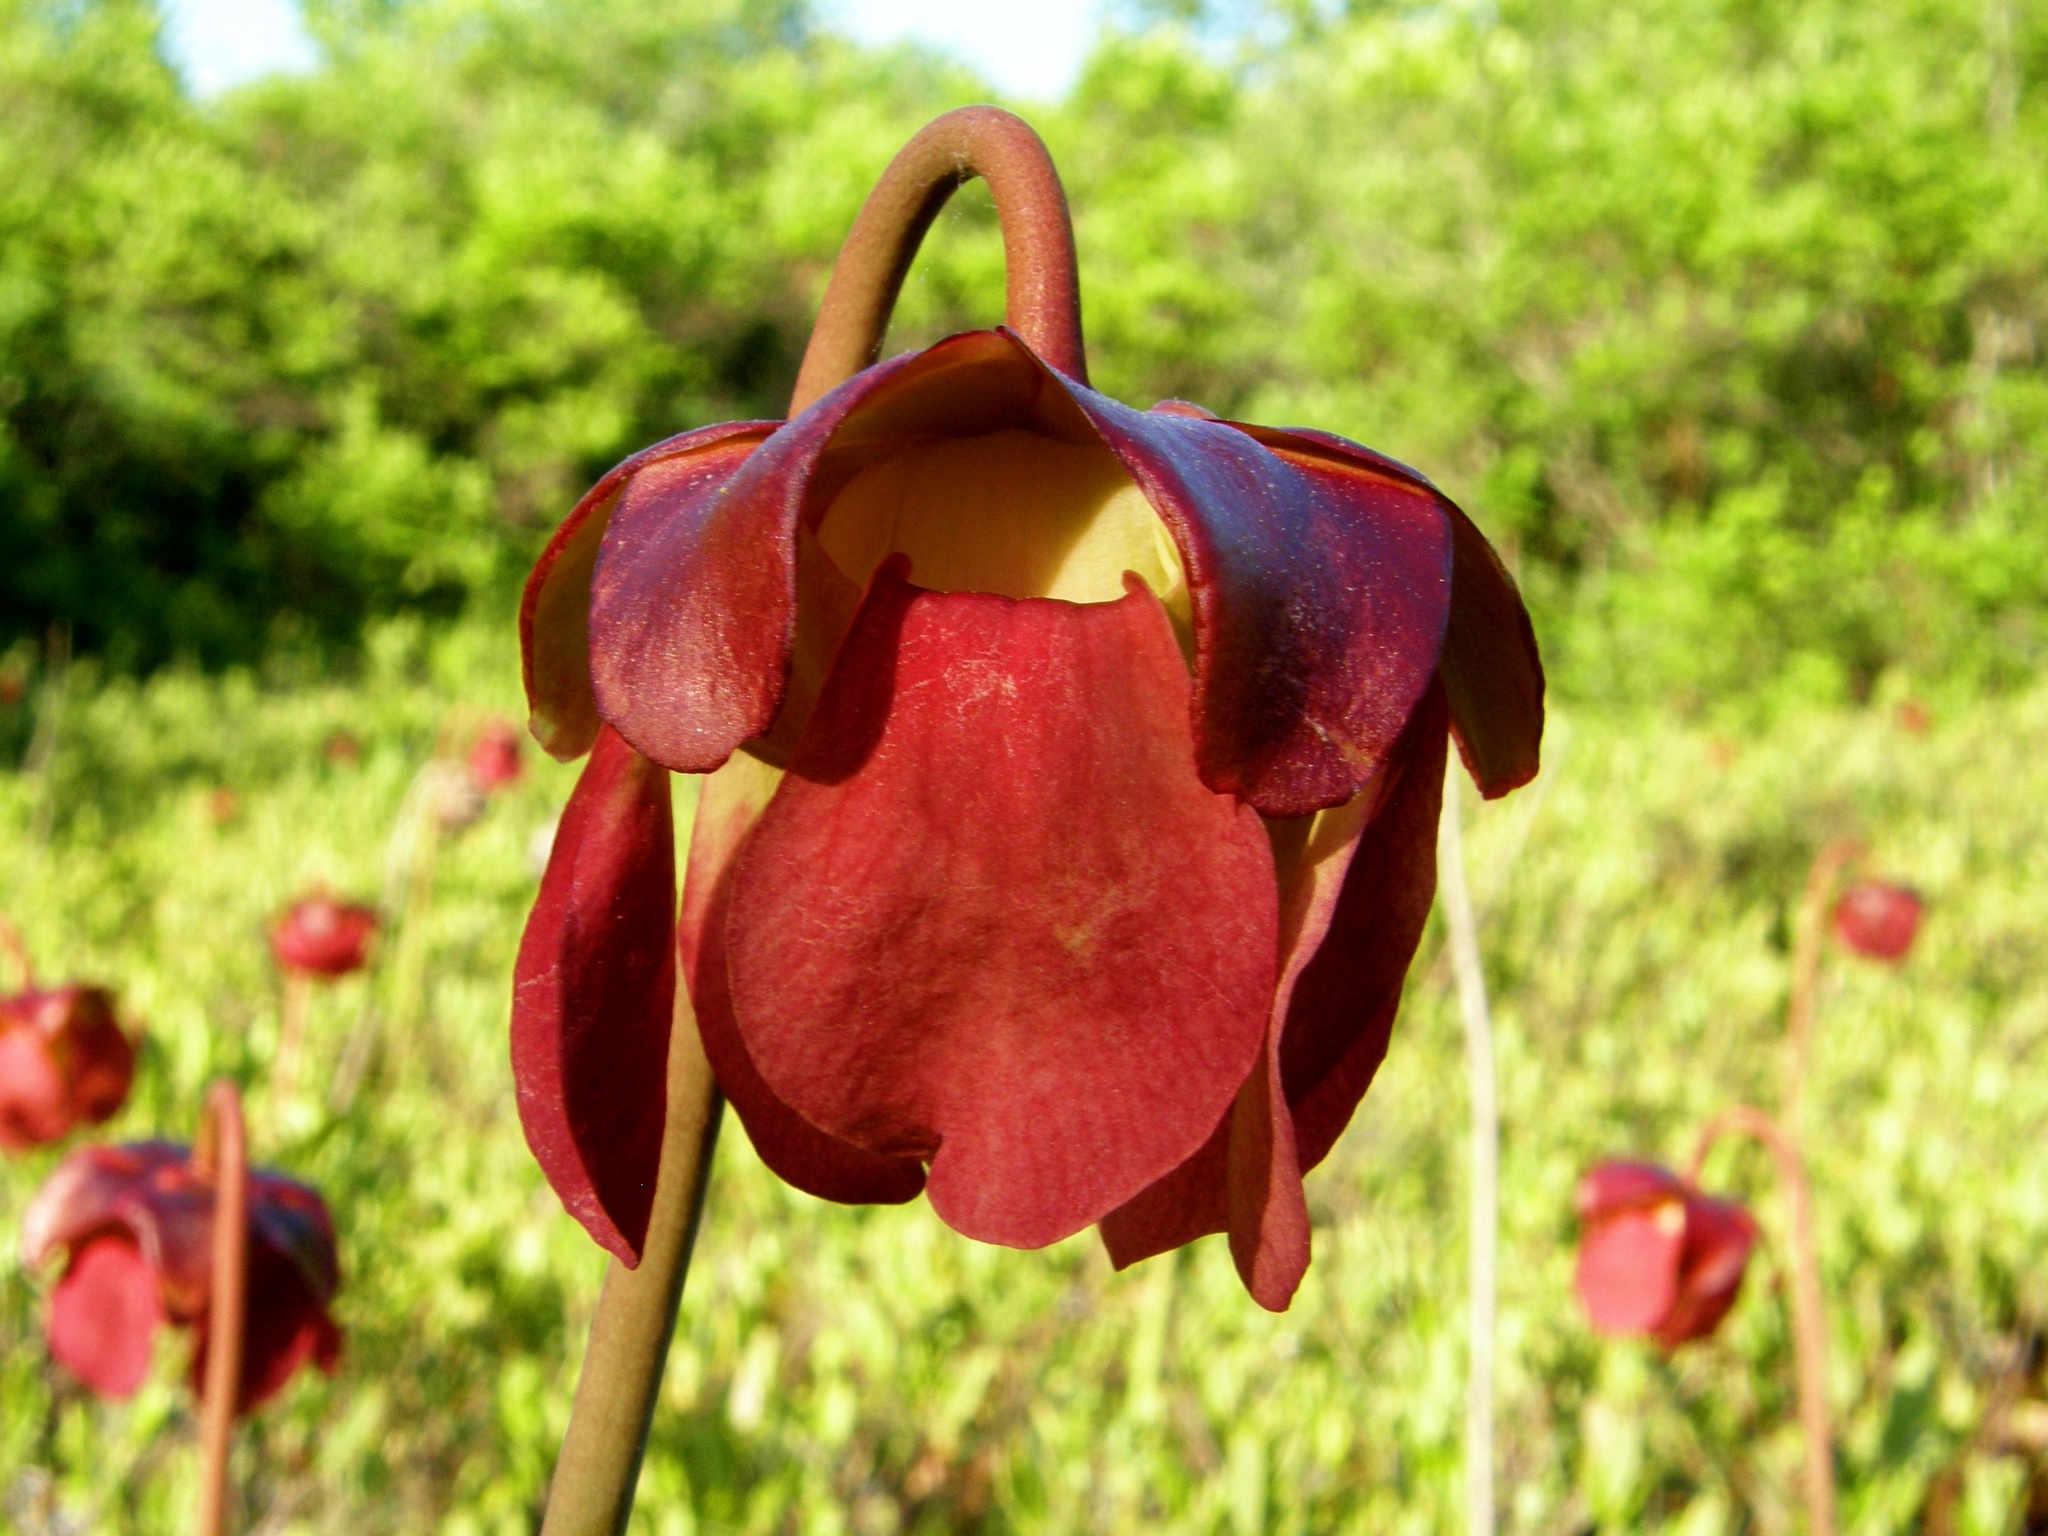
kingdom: Plantae
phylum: Tracheophyta
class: Magnoliopsida
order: Ericales
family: Sarraceniaceae
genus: Sarracenia
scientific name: Sarracenia purpurea
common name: Pitcherplant
